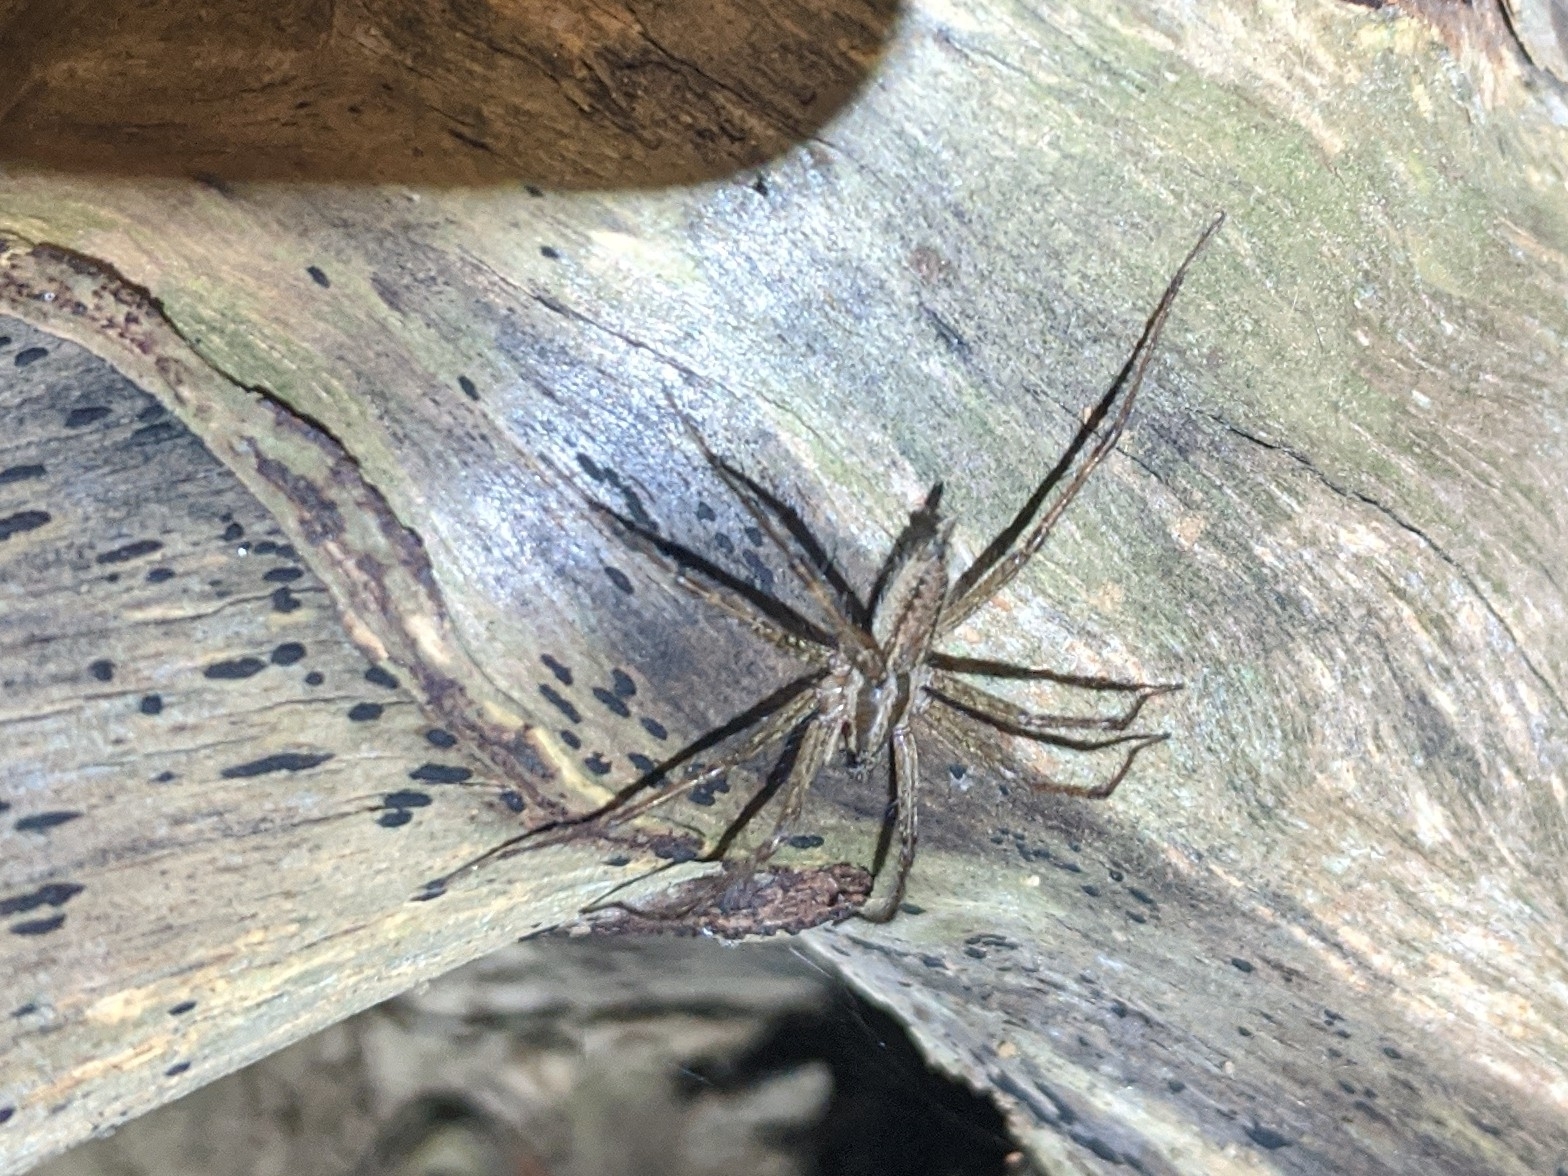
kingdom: Animalia
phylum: Arthropoda
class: Arachnida
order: Araneae
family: Agelenidae
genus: Agelenopsis
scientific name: Agelenopsis
